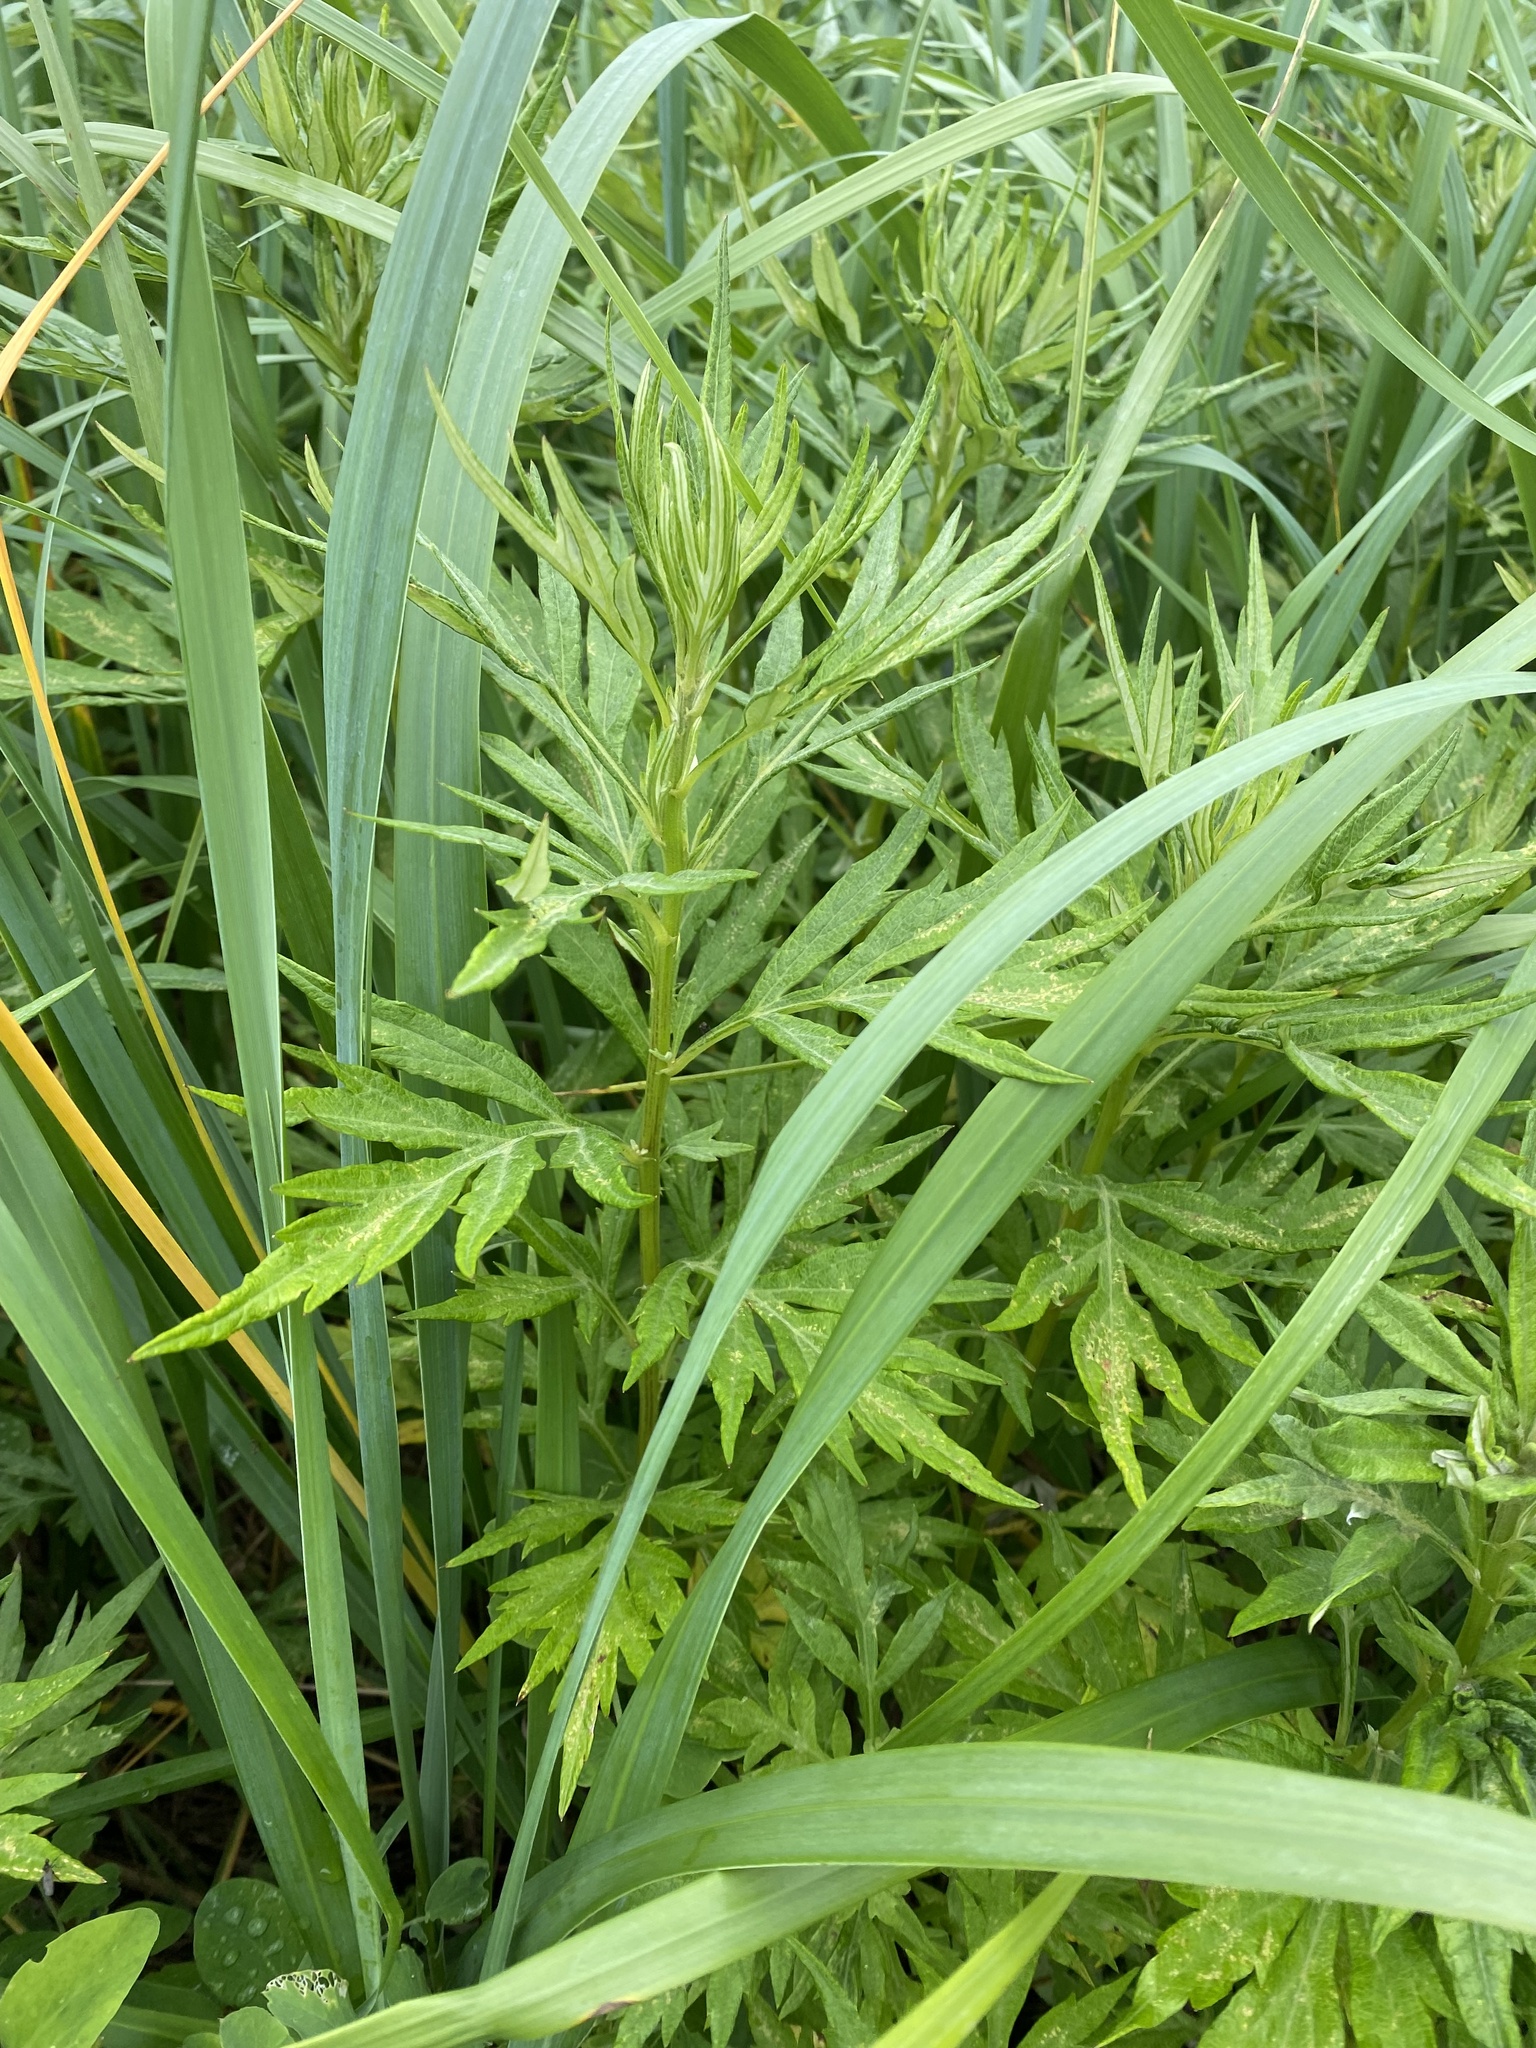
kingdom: Plantae
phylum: Tracheophyta
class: Magnoliopsida
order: Asterales
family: Asteraceae
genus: Jacobaea
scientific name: Jacobaea cannabifolia
